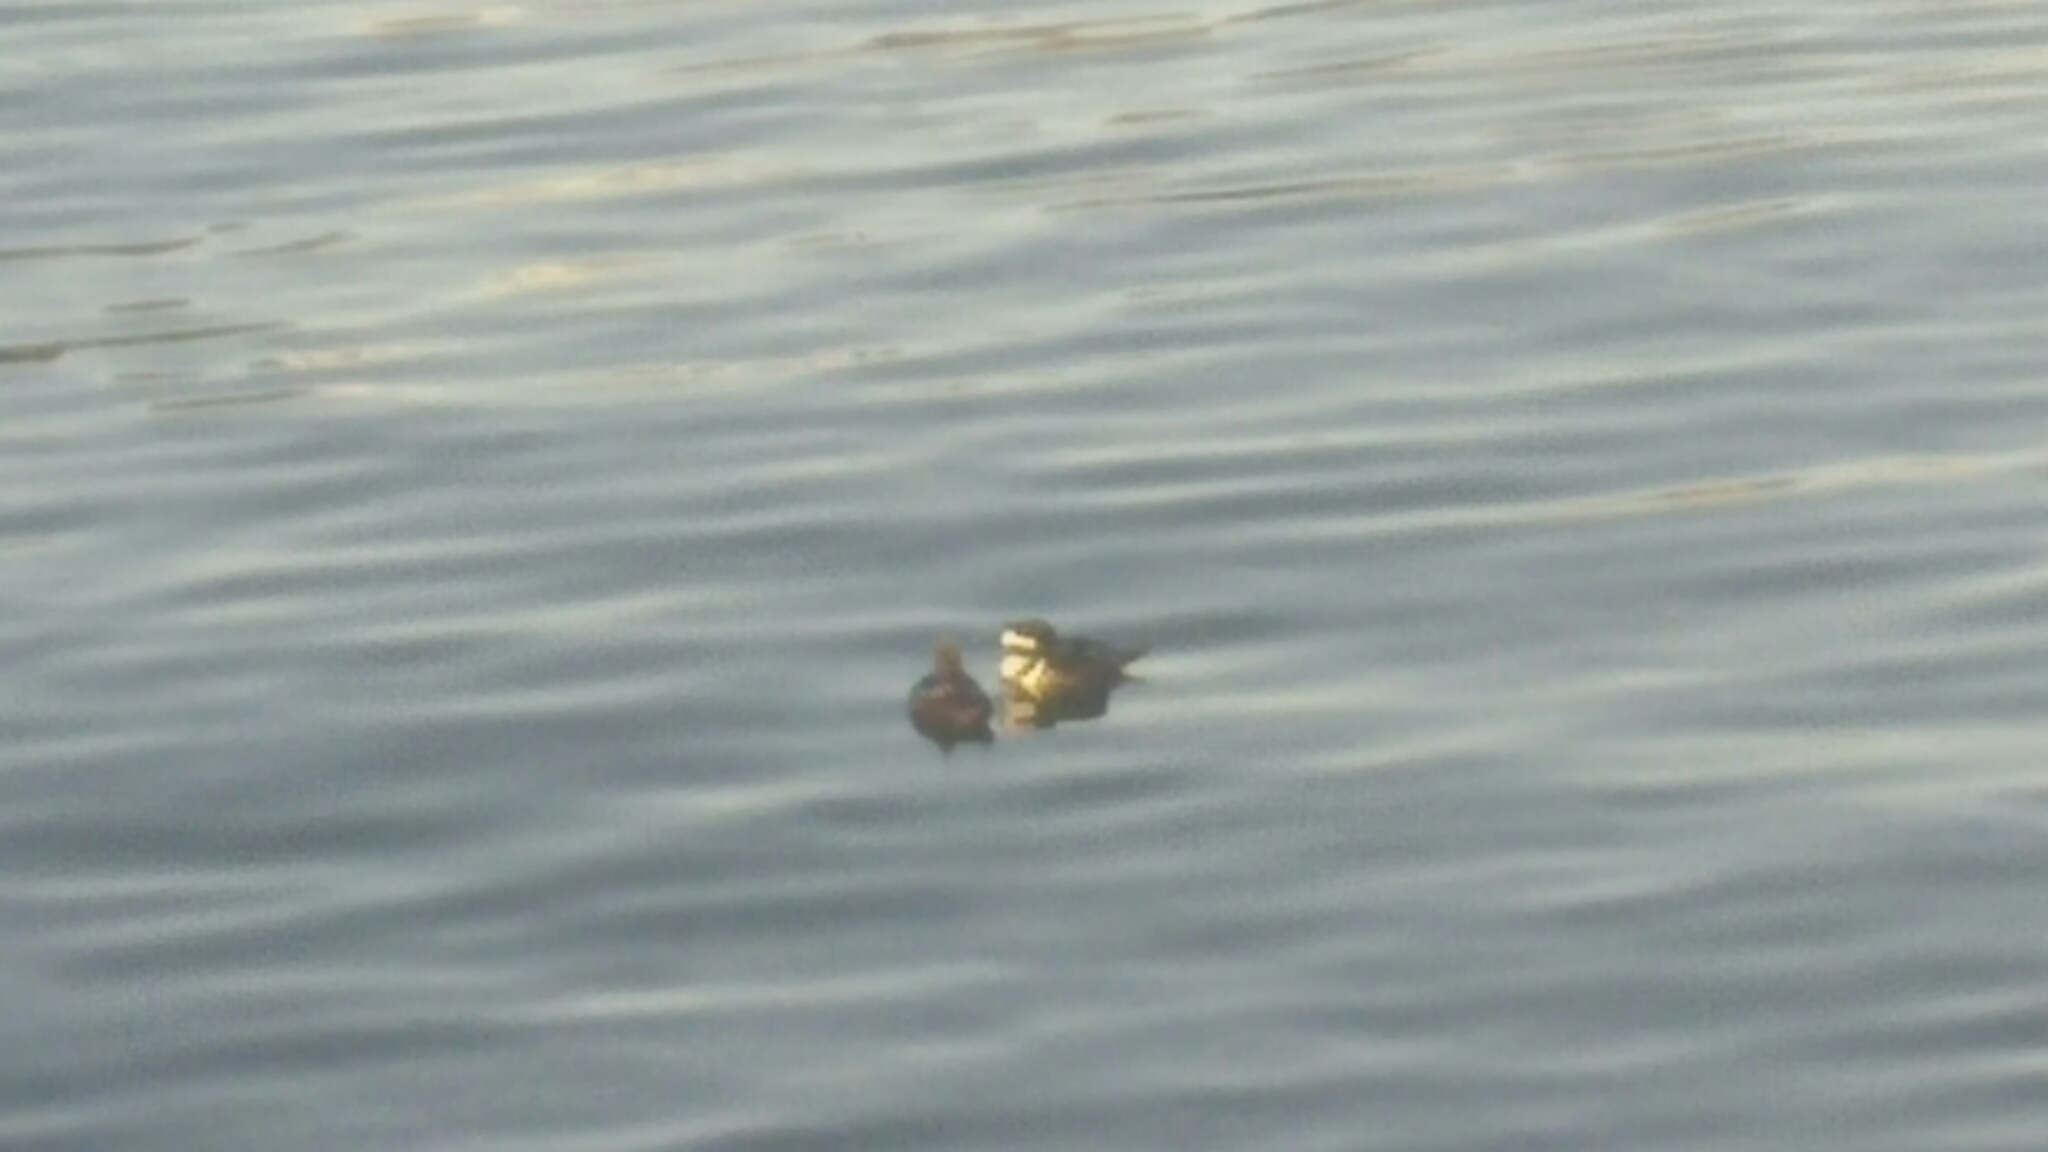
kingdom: Animalia
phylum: Chordata
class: Aves
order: Anseriformes
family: Anatidae
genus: Lophodytes
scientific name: Lophodytes cucullatus
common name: Hooded merganser
